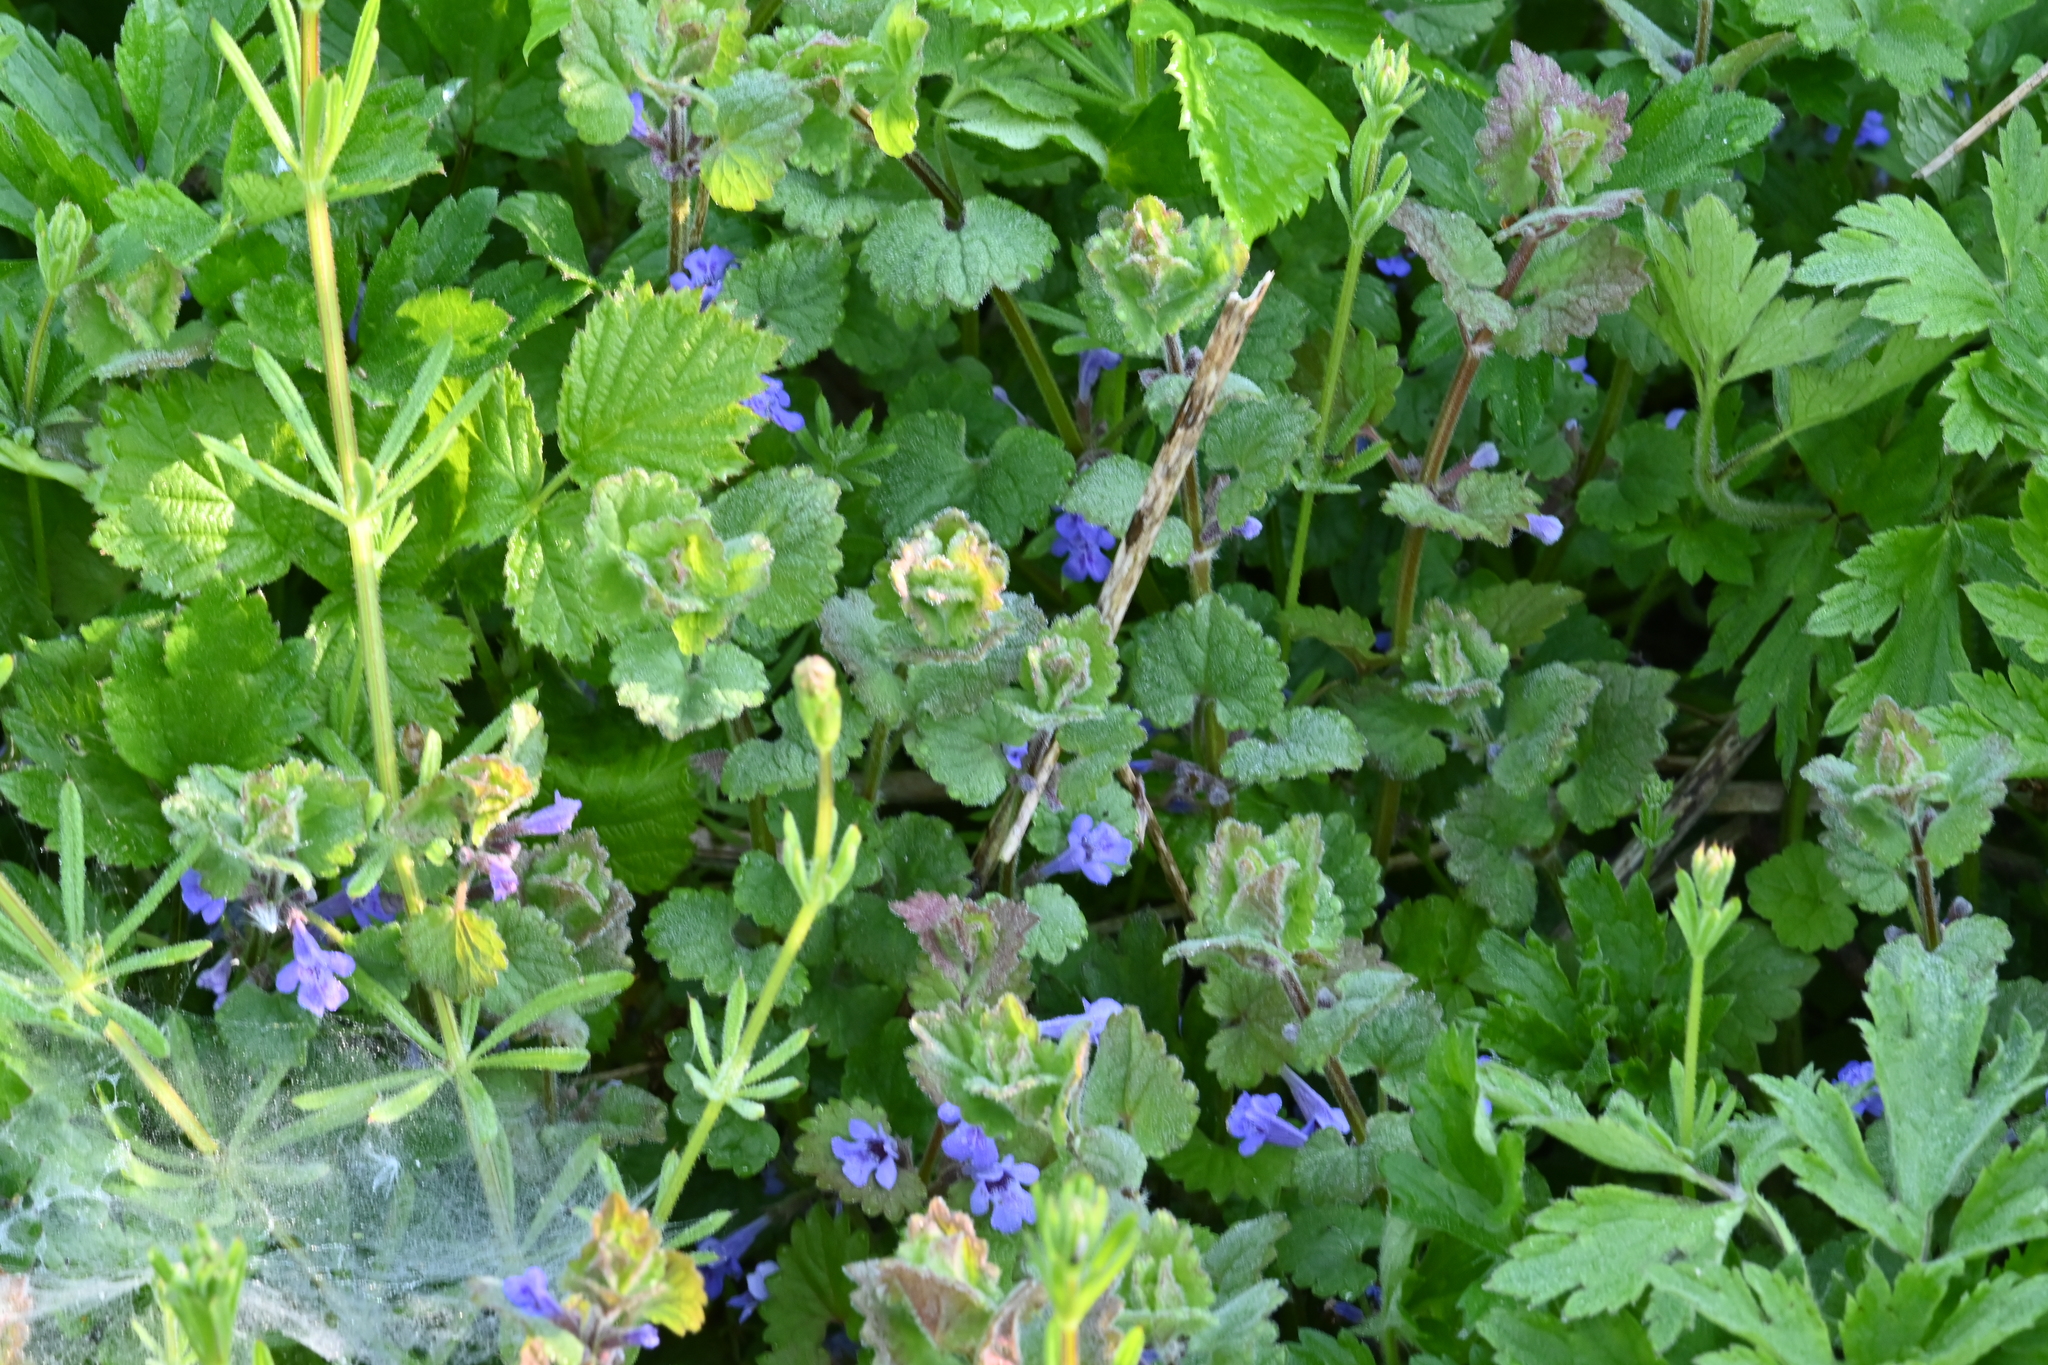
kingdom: Plantae
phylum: Tracheophyta
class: Magnoliopsida
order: Lamiales
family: Lamiaceae
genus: Glechoma
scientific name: Glechoma hederacea
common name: Ground ivy
